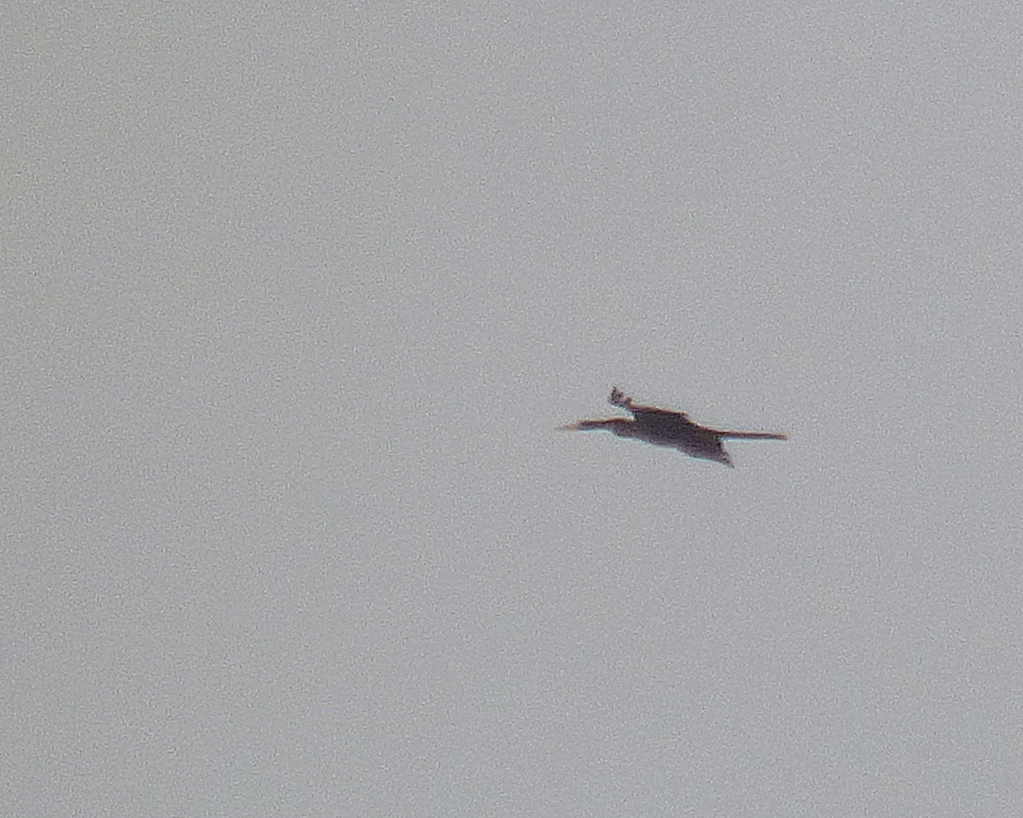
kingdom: Animalia
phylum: Chordata
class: Aves
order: Suliformes
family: Anhingidae
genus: Anhinga
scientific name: Anhinga anhinga
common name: Anhinga
